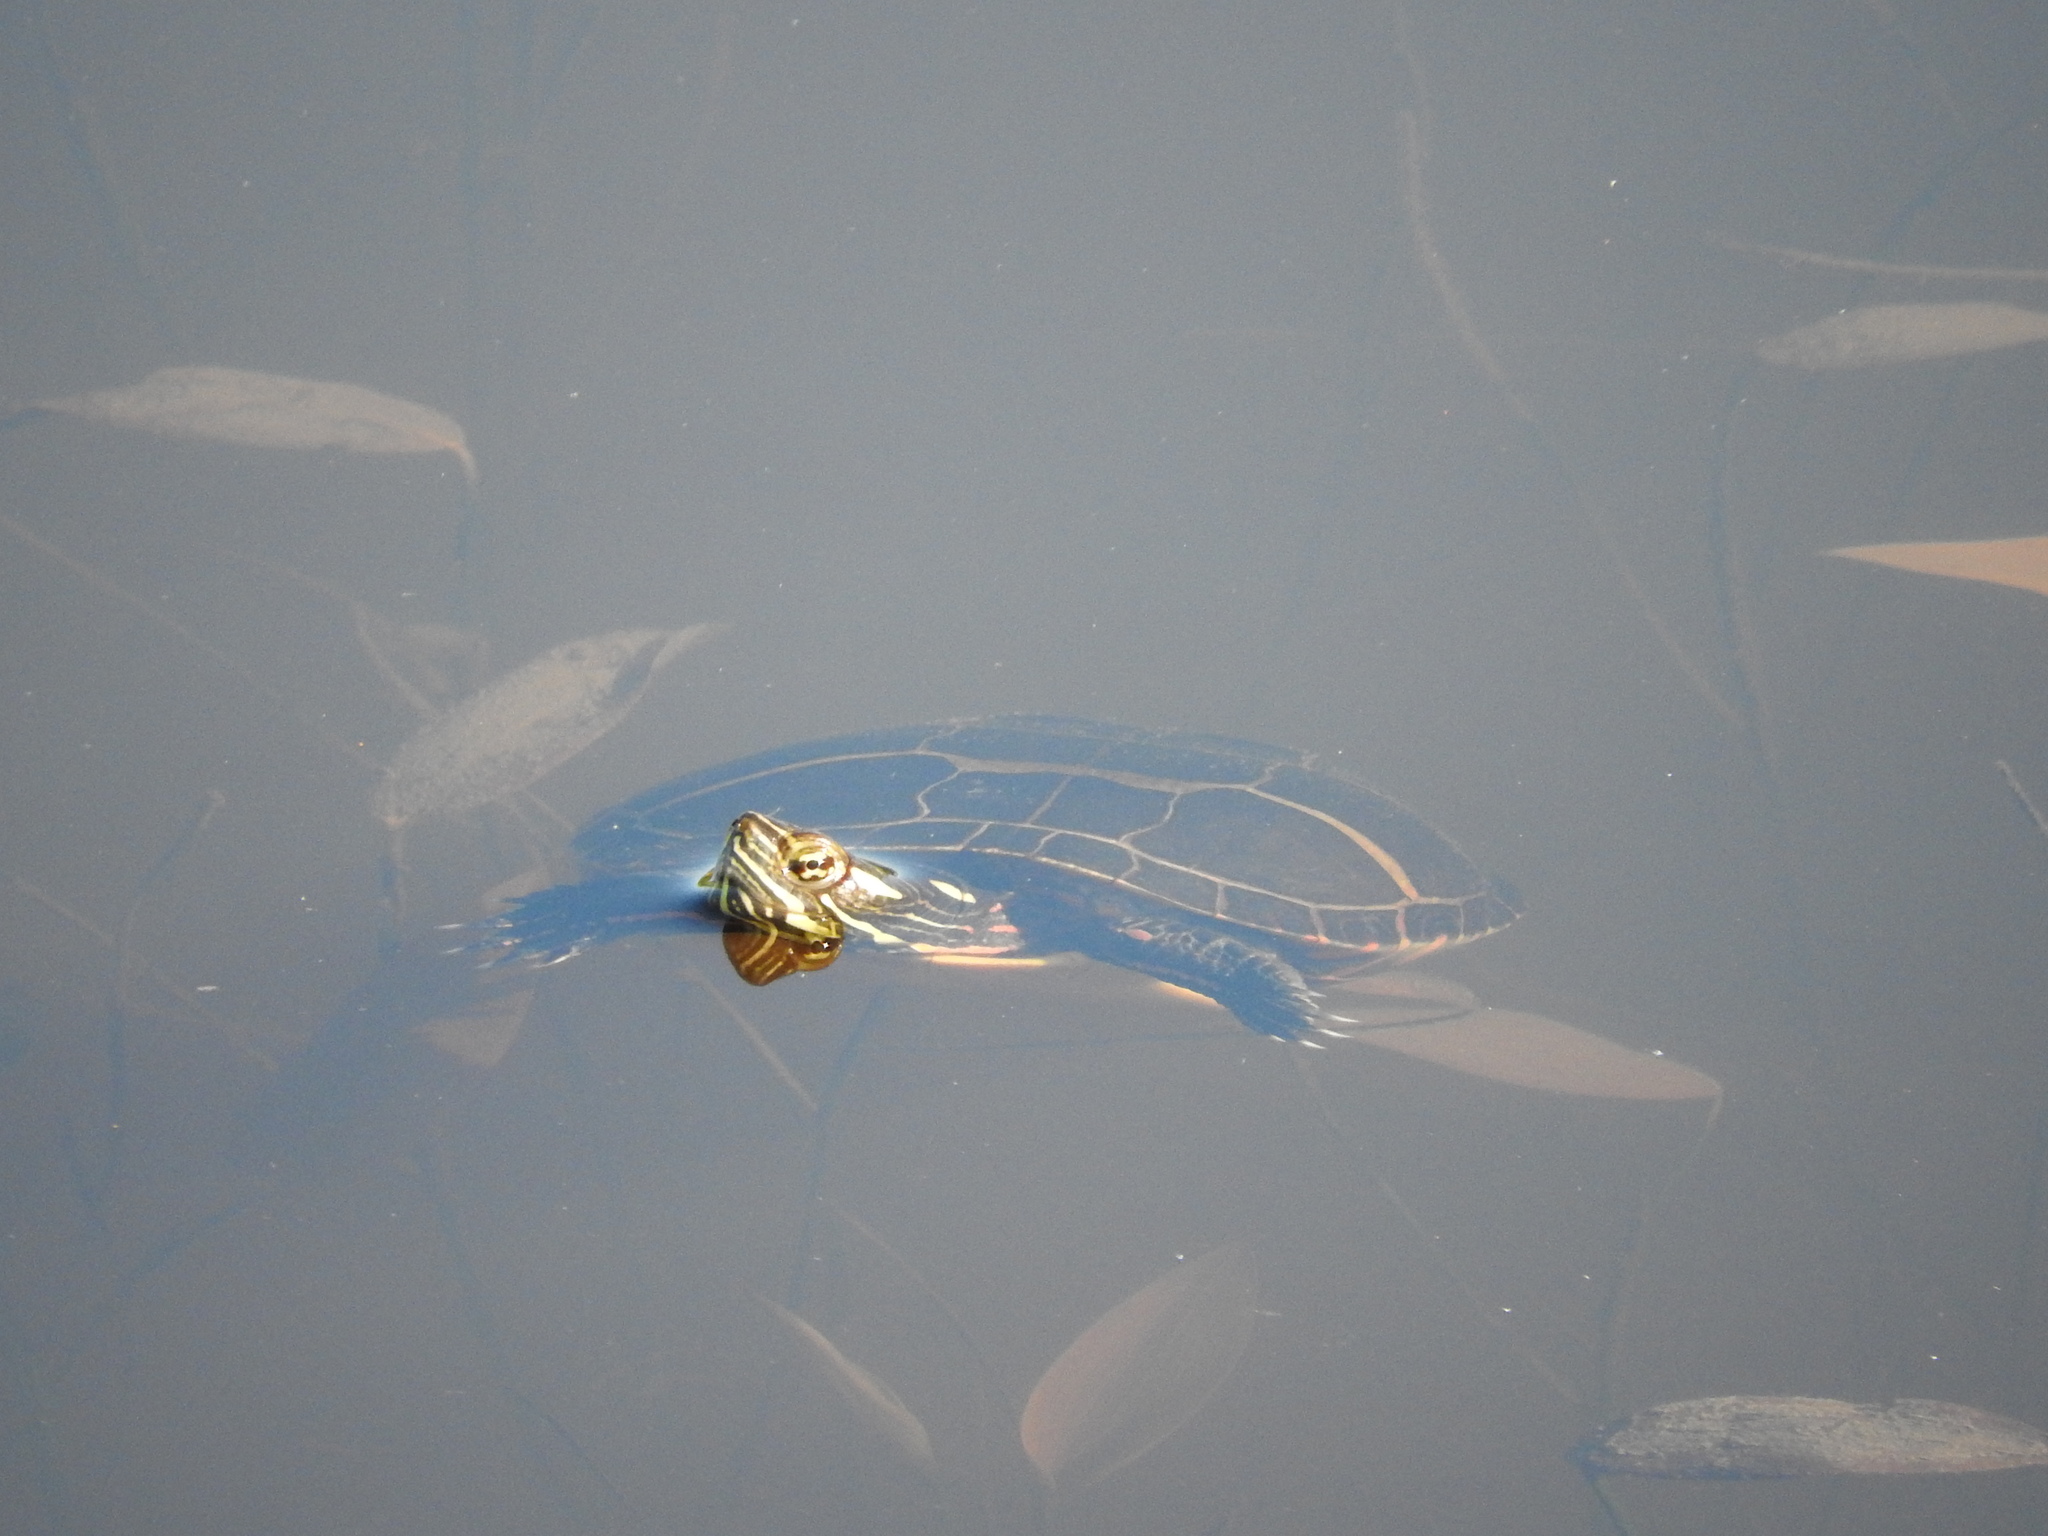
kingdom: Animalia
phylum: Chordata
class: Testudines
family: Emydidae
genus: Chrysemys
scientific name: Chrysemys picta
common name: Painted turtle
